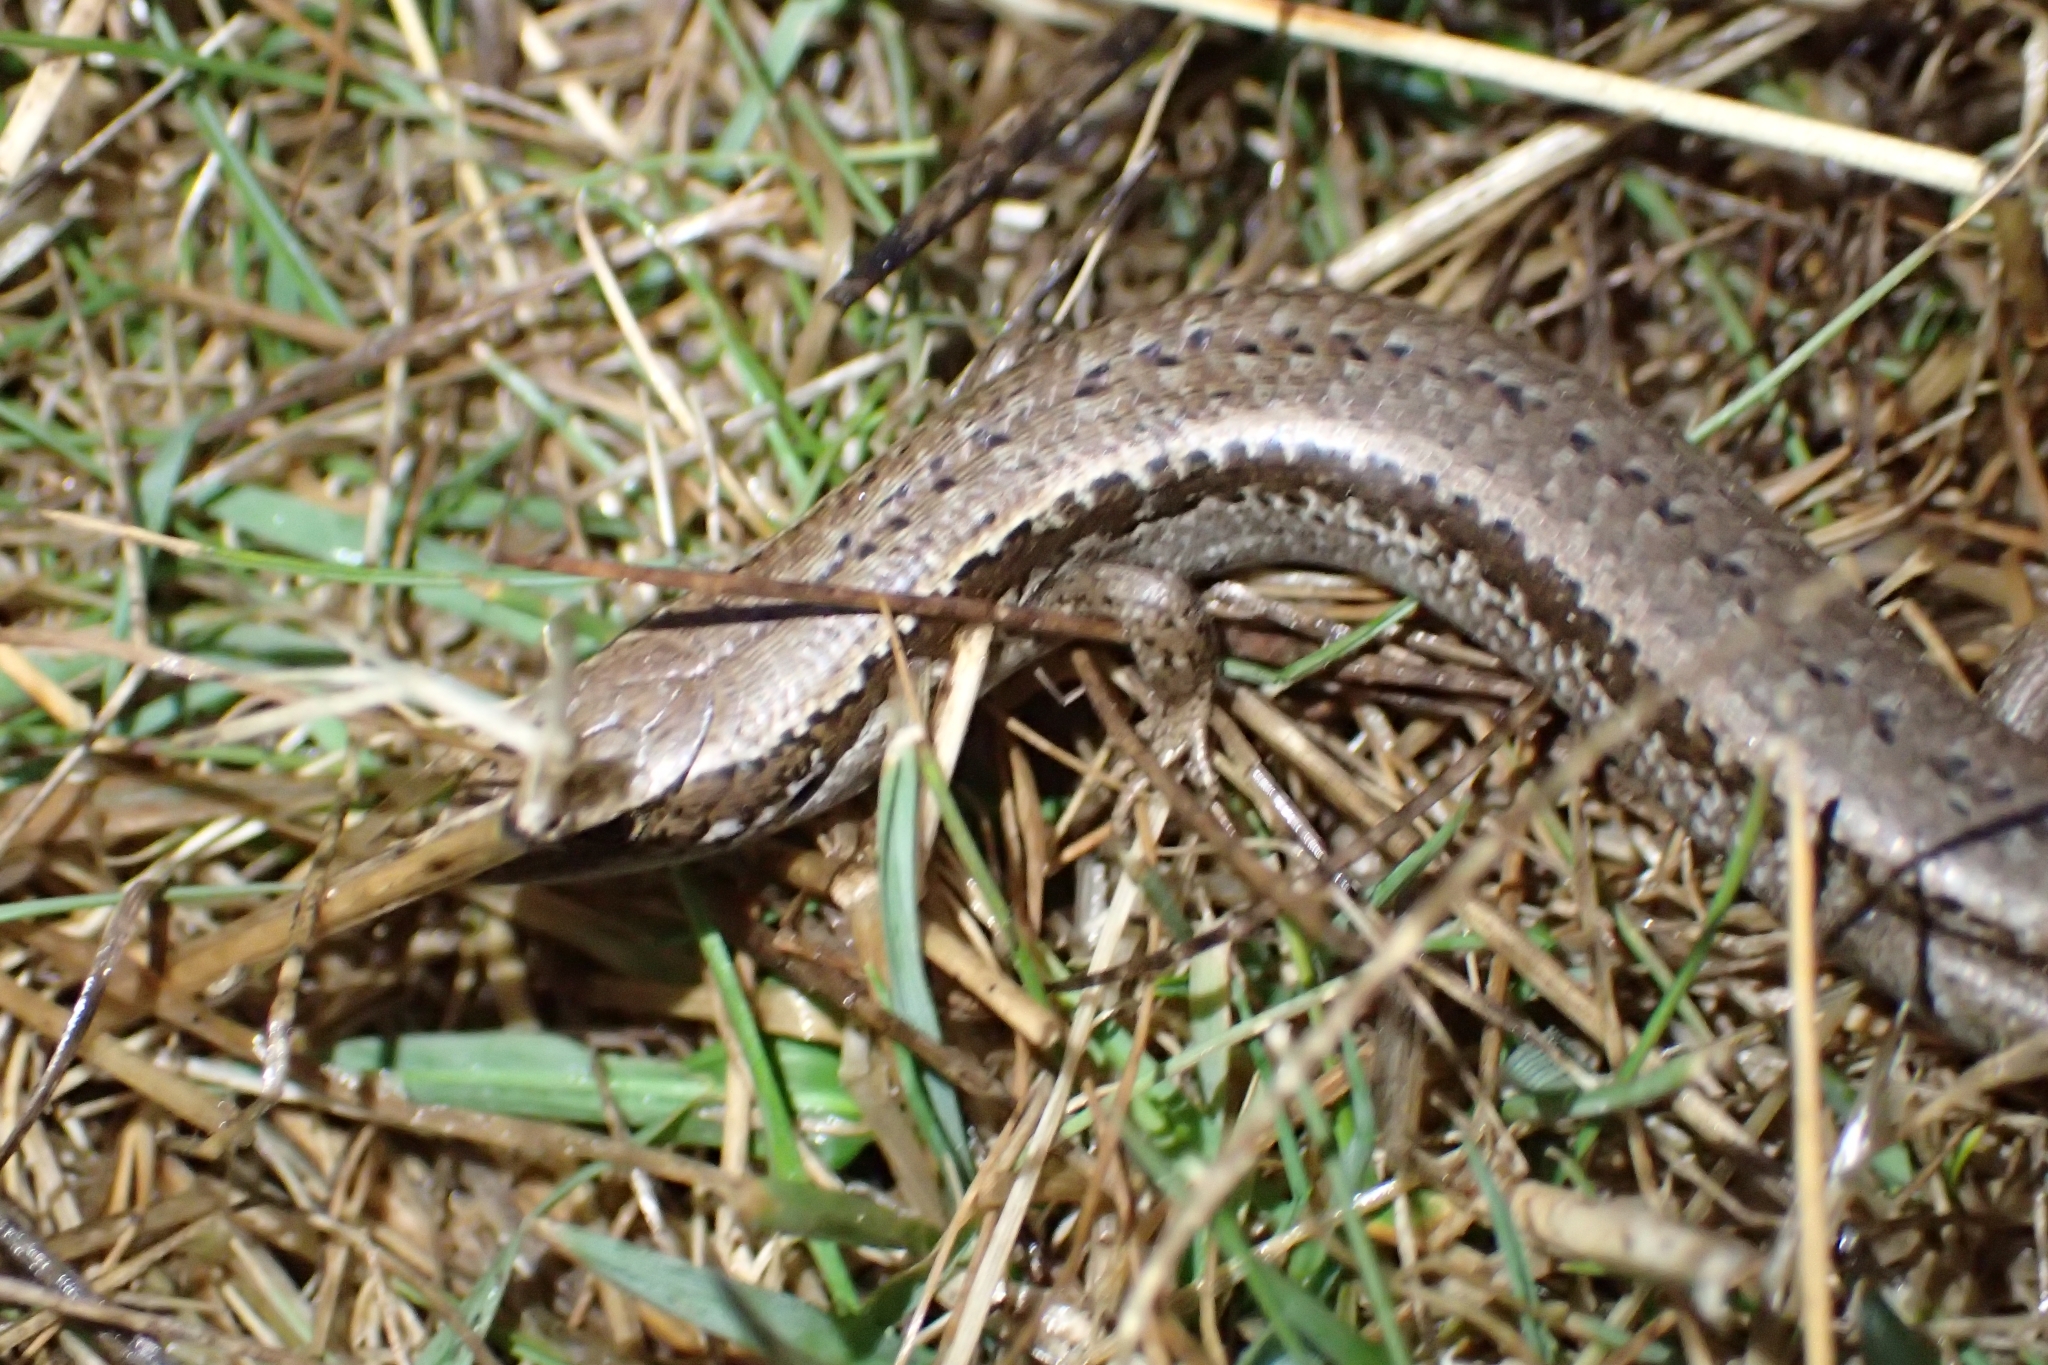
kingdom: Animalia
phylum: Chordata
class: Squamata
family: Scincidae
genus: Oligosoma
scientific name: Oligosoma polychroma
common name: Common new zealand skink
